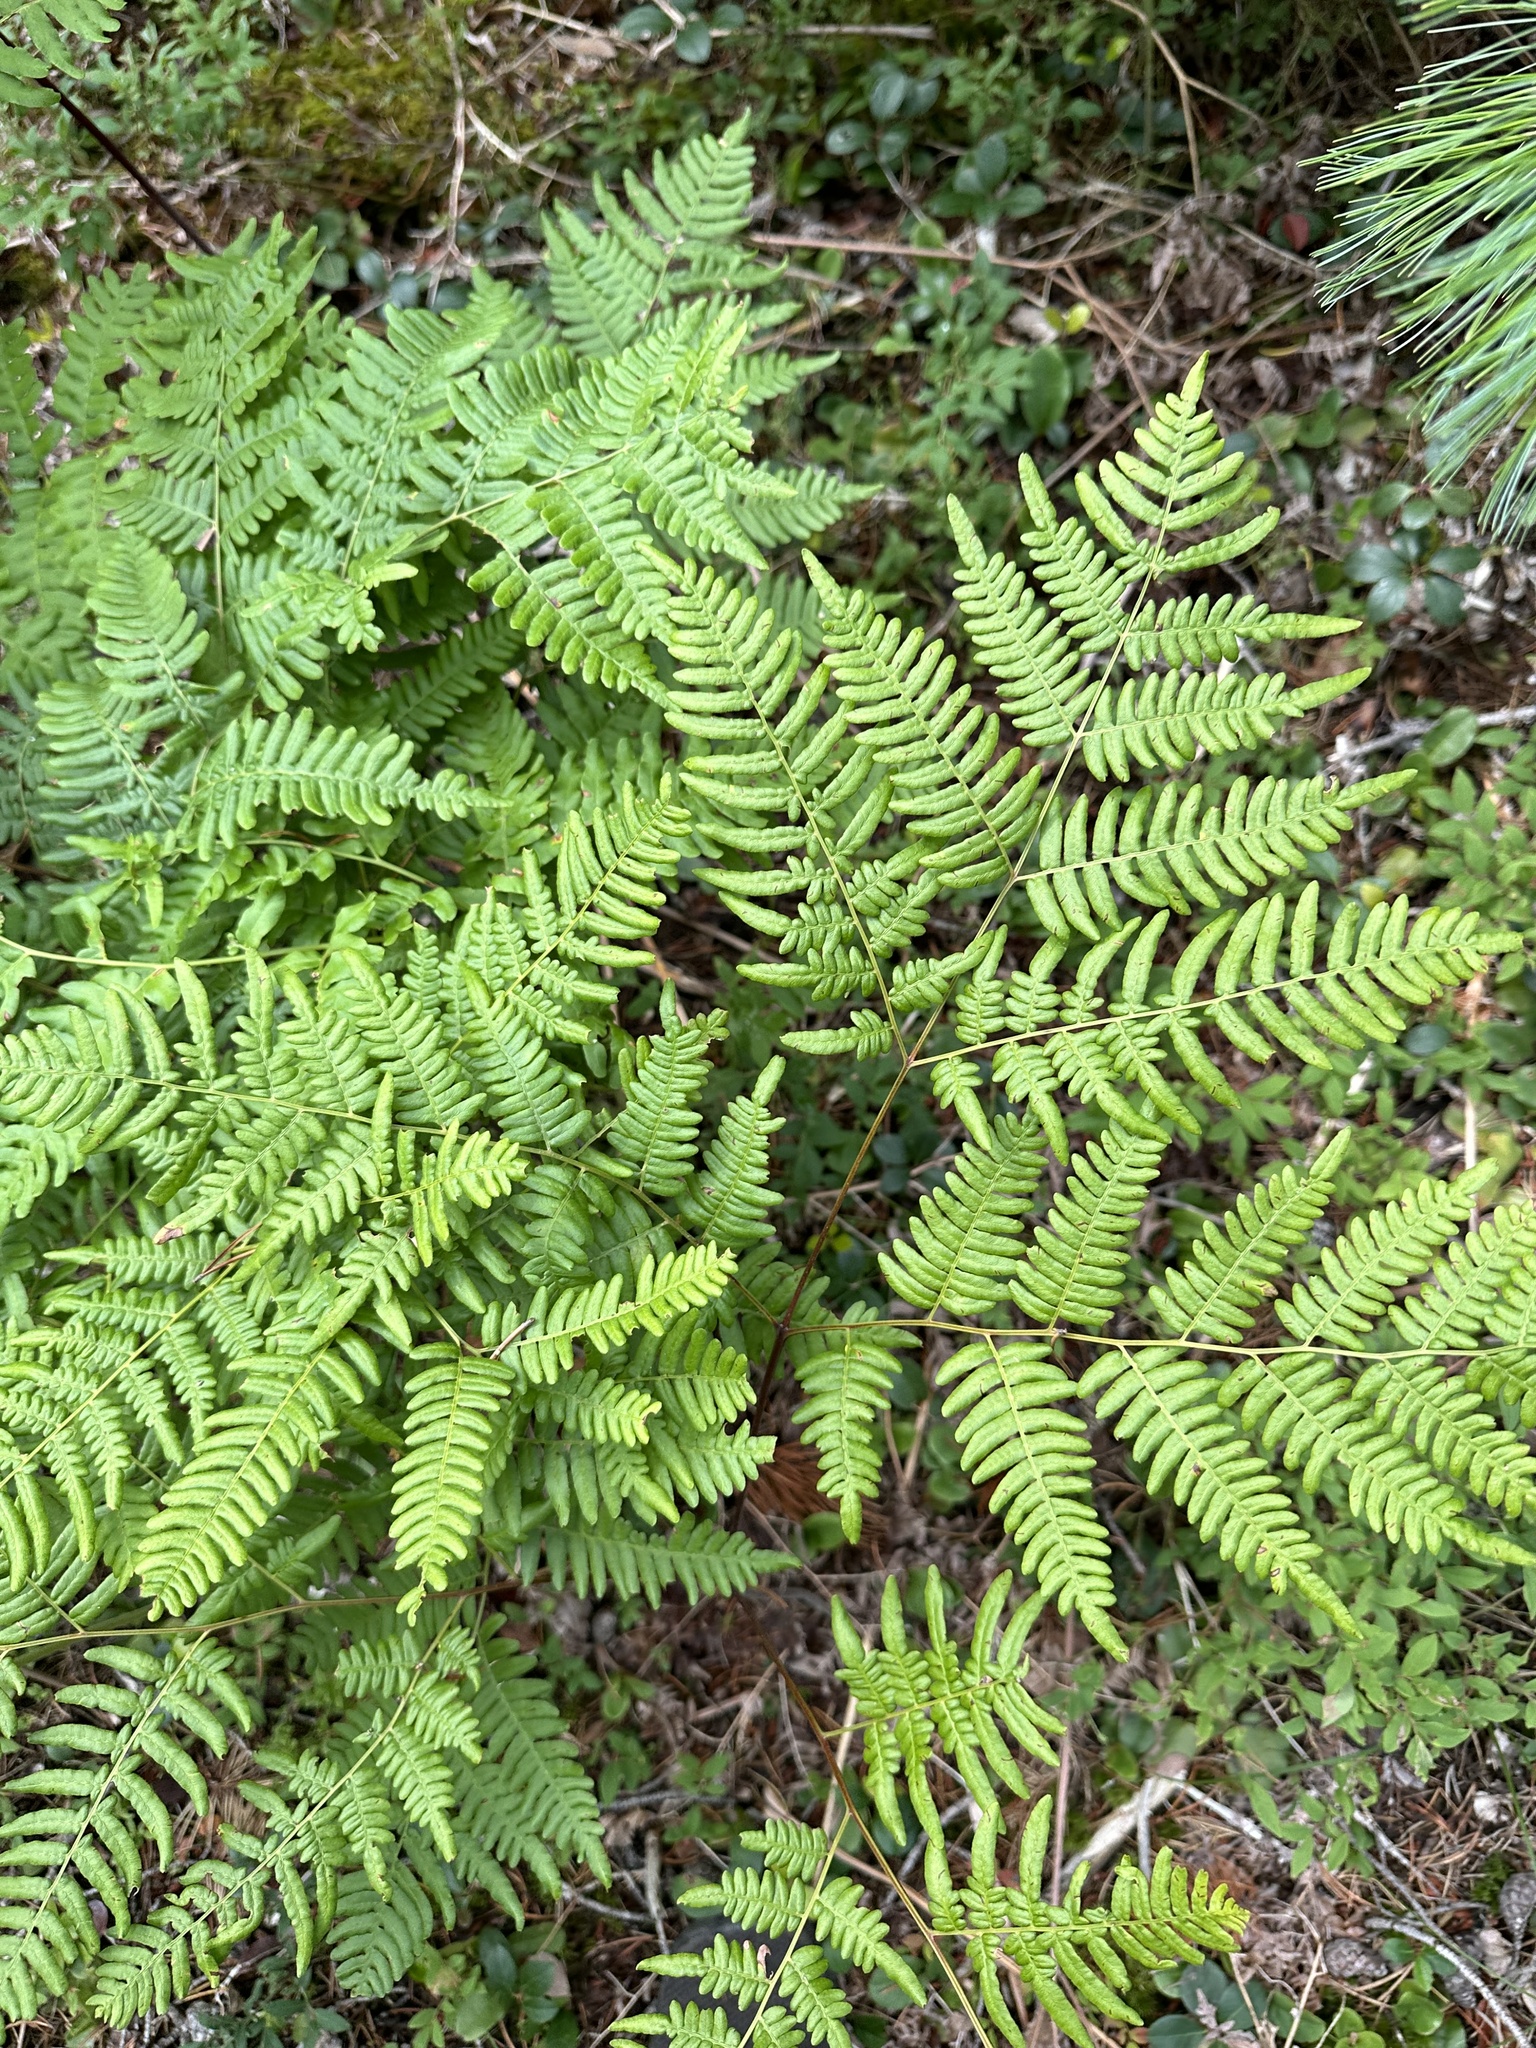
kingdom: Plantae
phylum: Tracheophyta
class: Polypodiopsida
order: Polypodiales
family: Dennstaedtiaceae
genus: Pteridium
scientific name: Pteridium aquilinum
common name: Bracken
